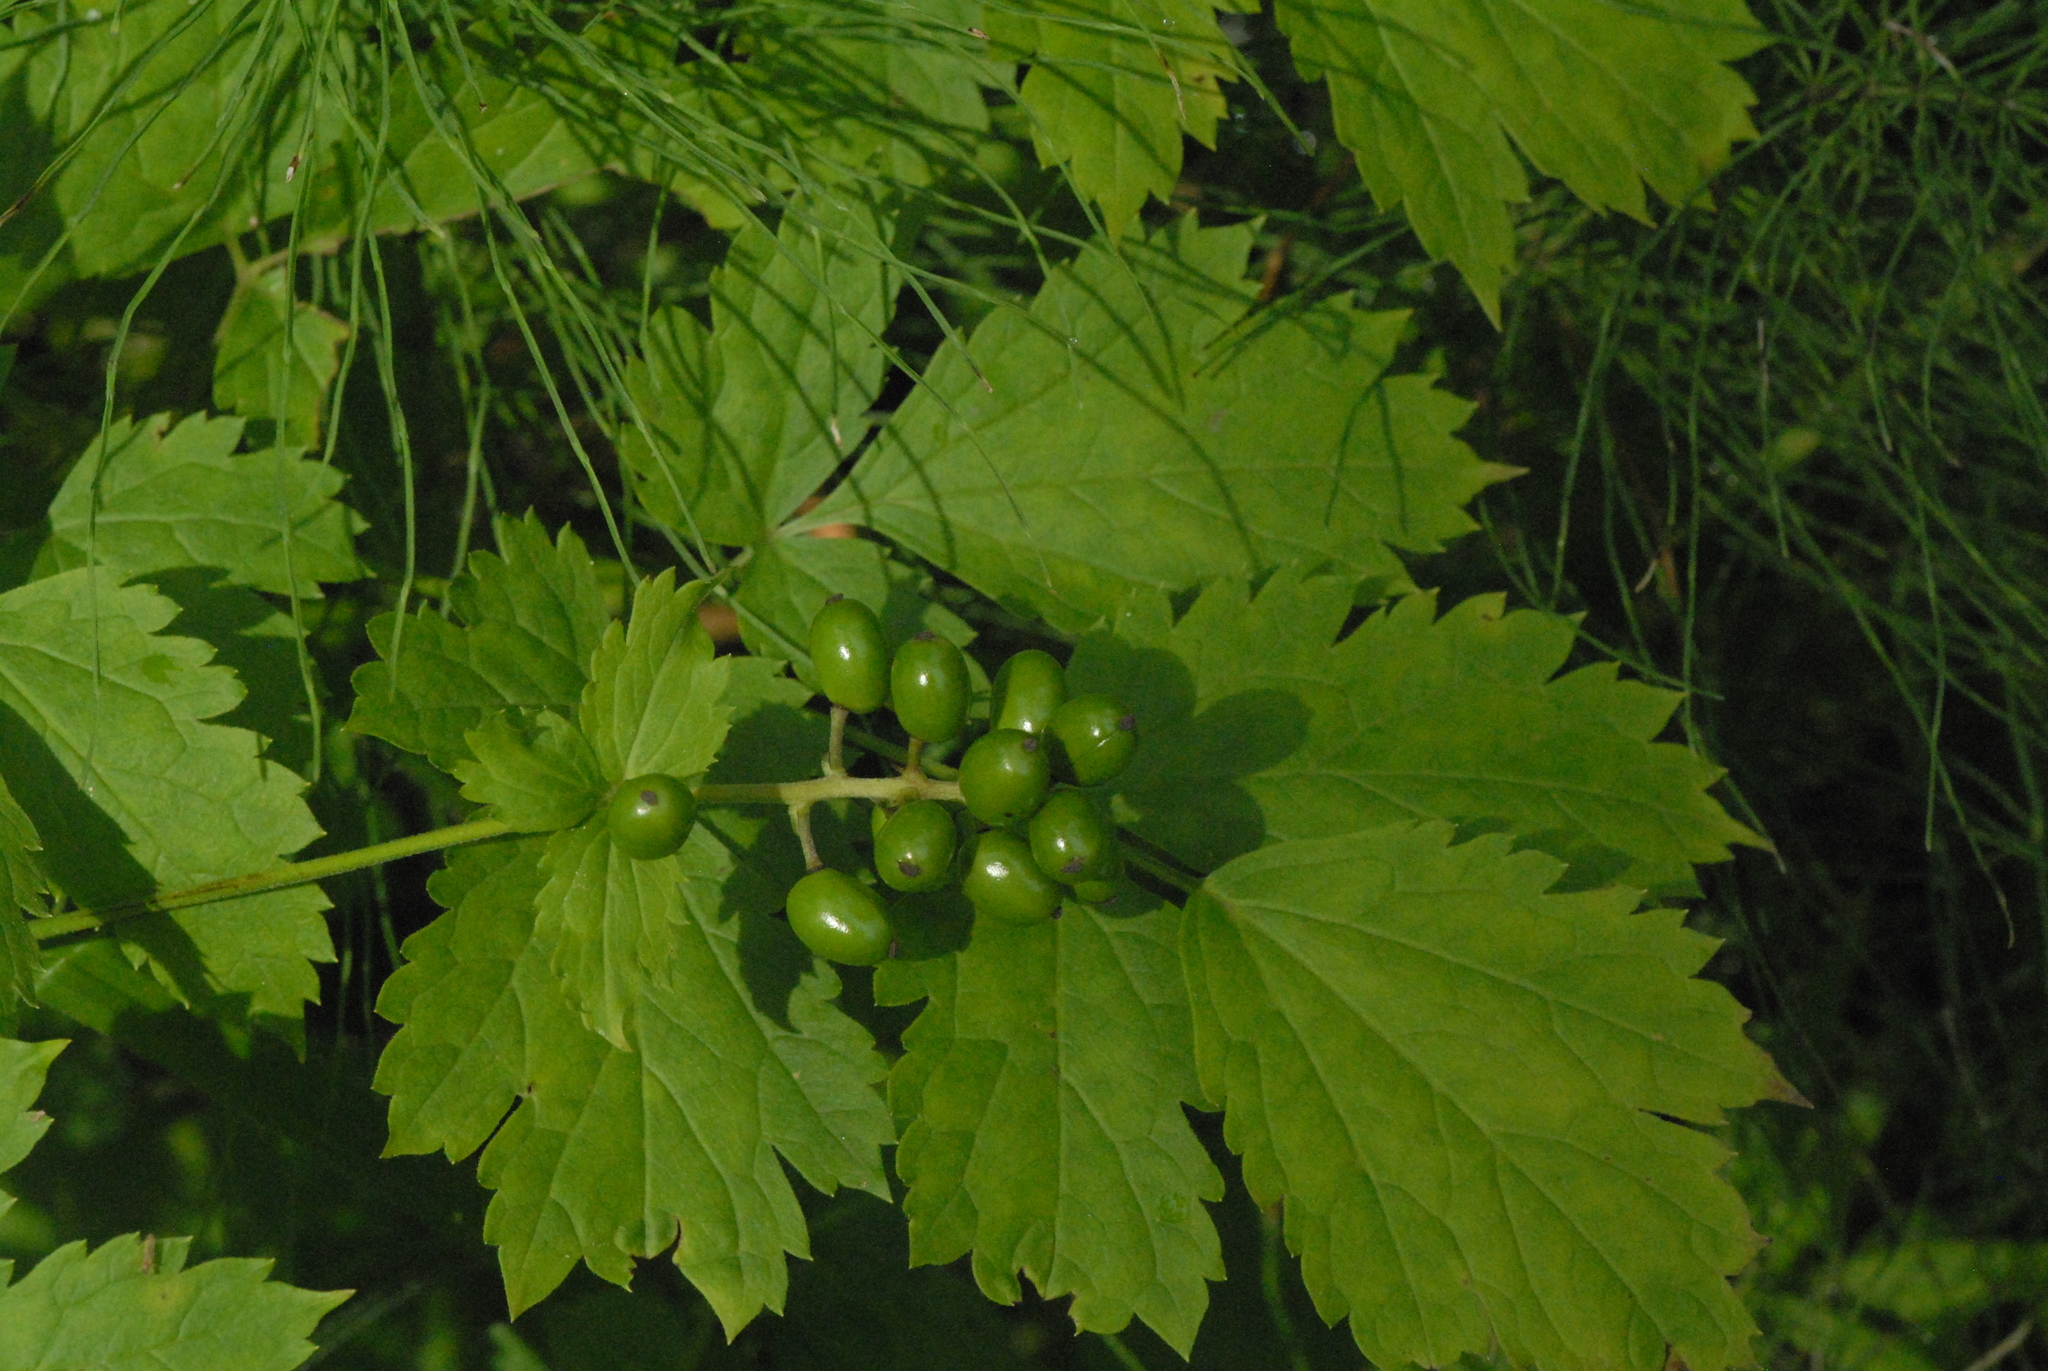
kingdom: Plantae
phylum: Tracheophyta
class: Magnoliopsida
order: Ranunculales
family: Ranunculaceae
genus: Actaea
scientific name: Actaea spicata
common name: Baneberry
